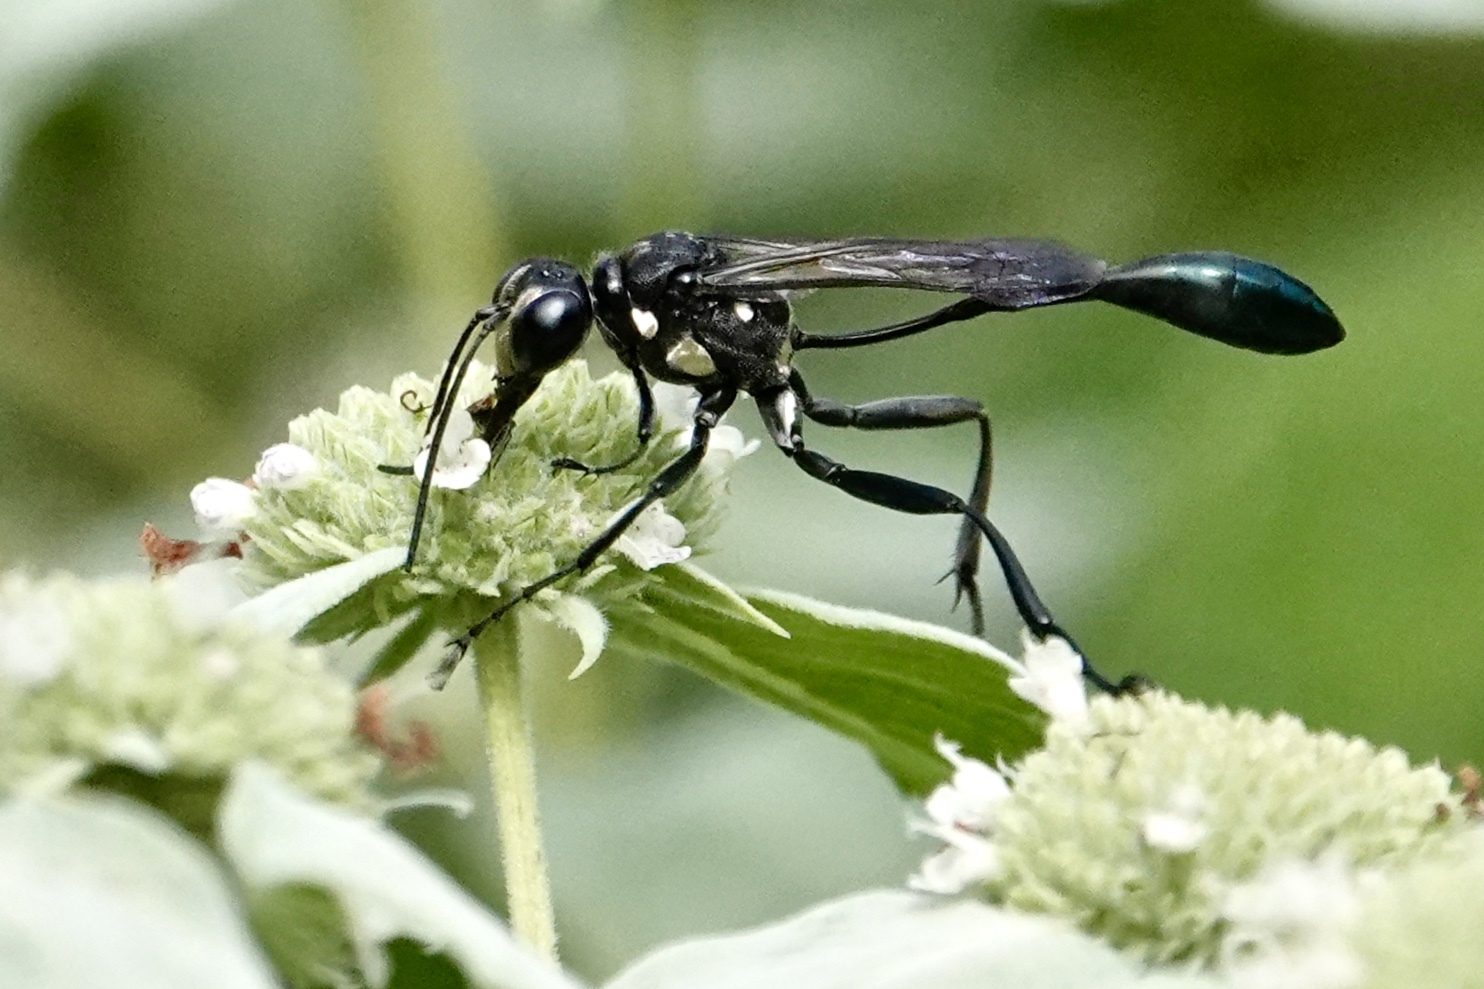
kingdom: Animalia
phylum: Arthropoda
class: Insecta
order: Hymenoptera
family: Sphecidae
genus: Eremnophila
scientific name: Eremnophila aureonotata
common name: Gold-marked thread-waisted wasp
